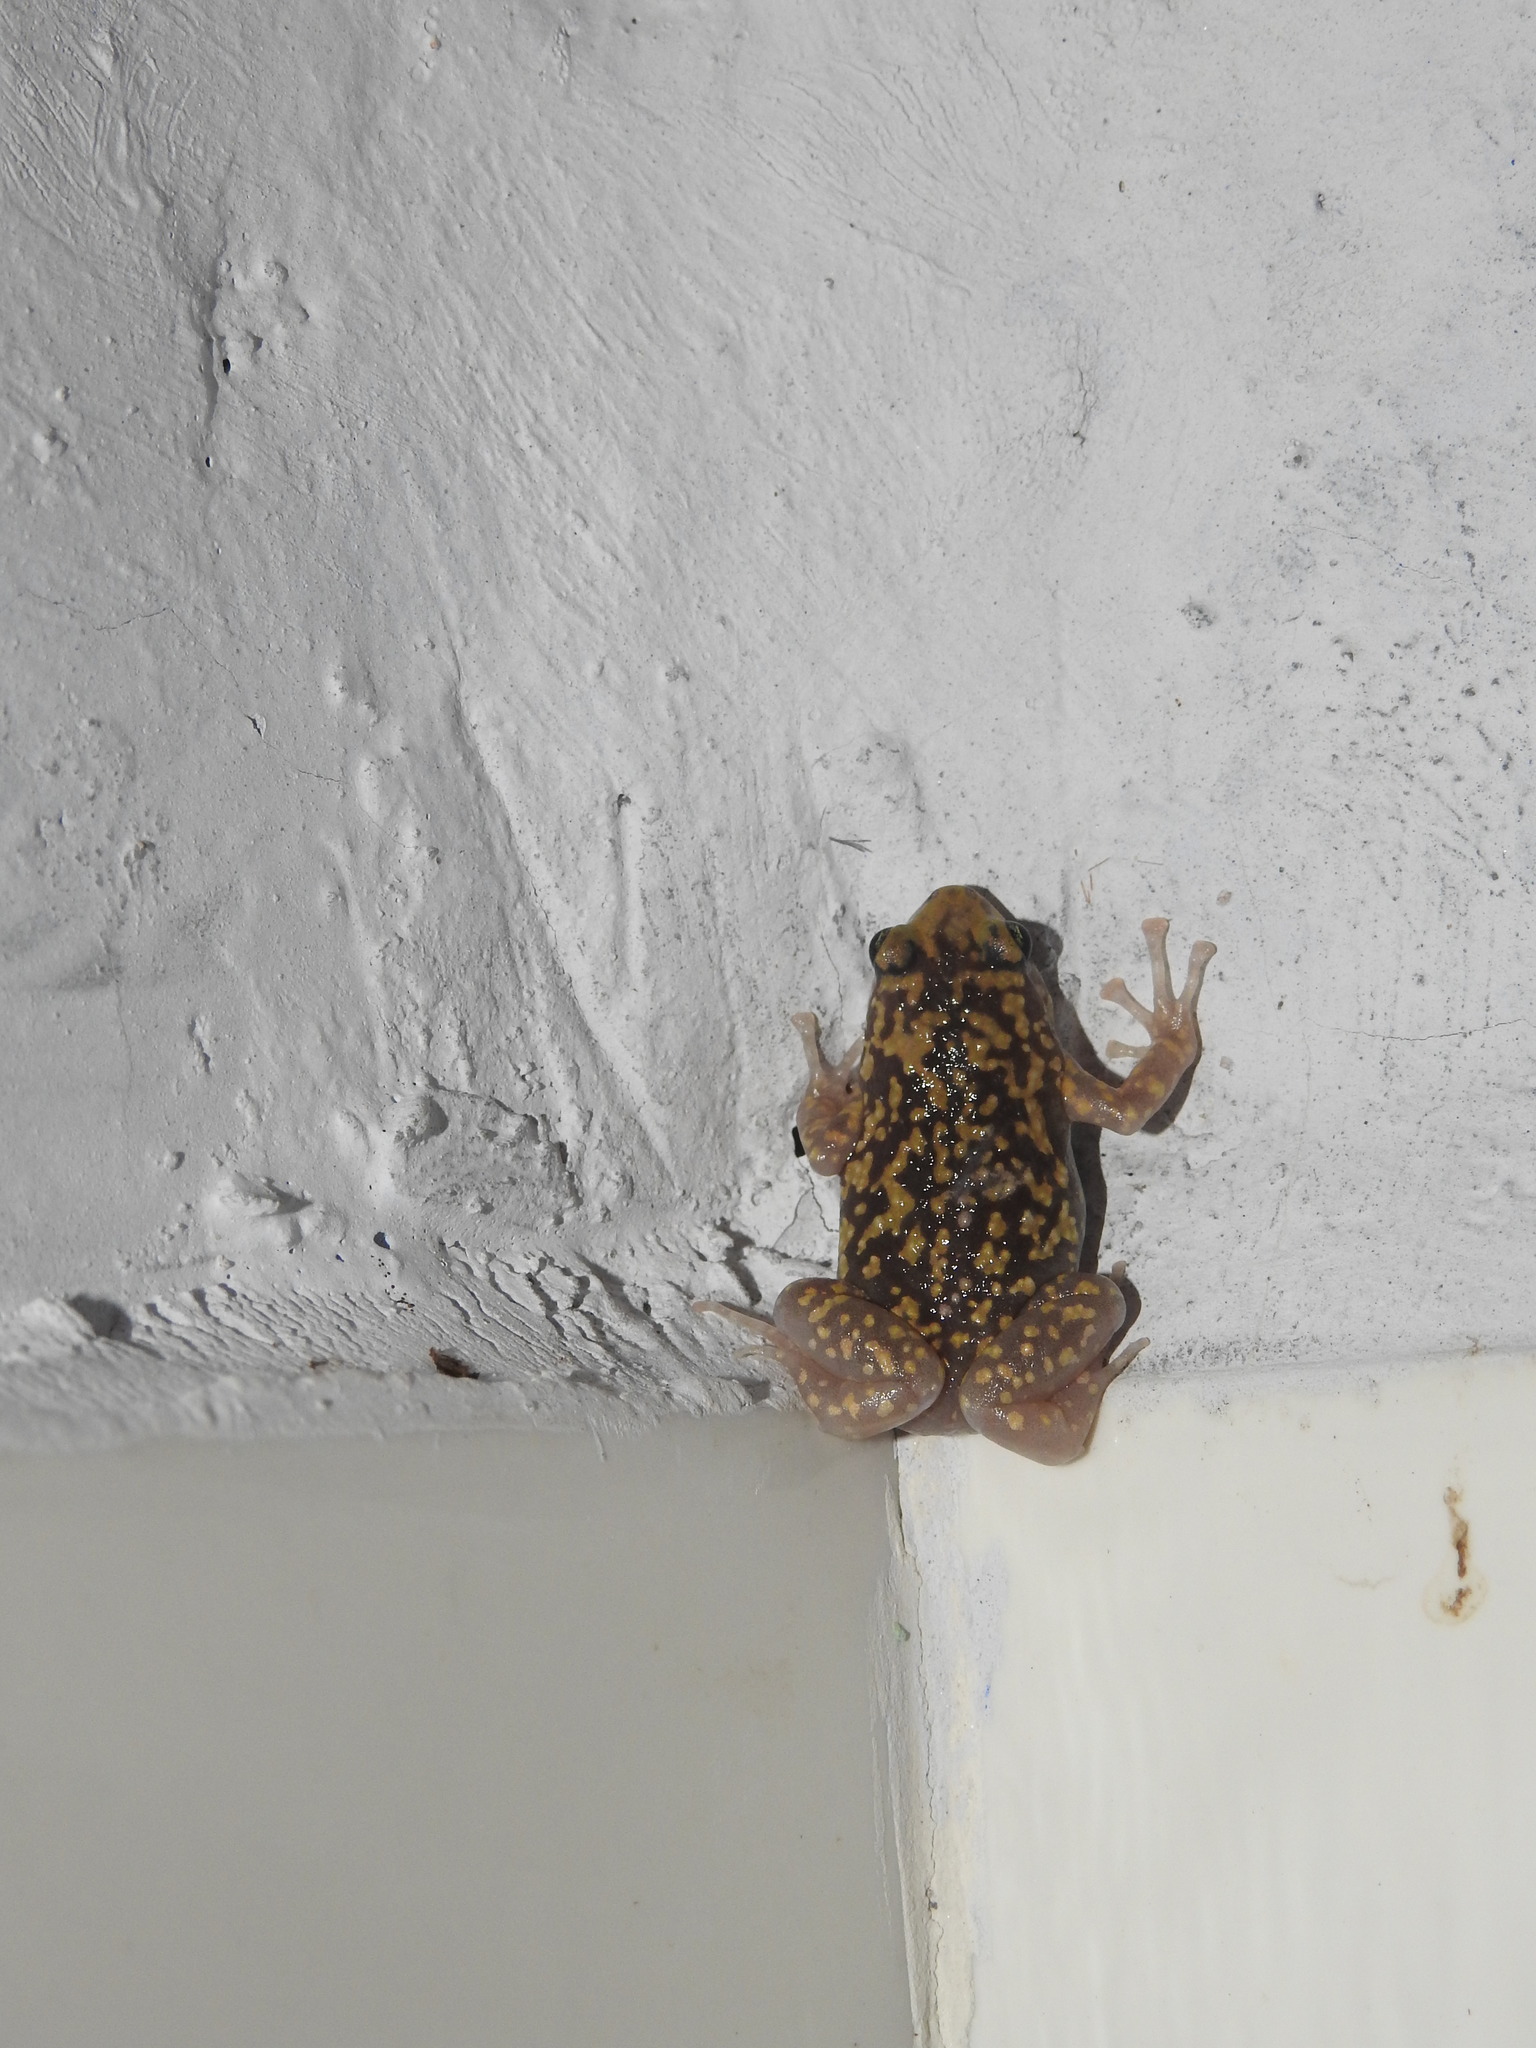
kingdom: Animalia
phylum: Chordata
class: Amphibia
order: Anura
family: Microhylidae
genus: Uperodon
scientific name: Uperodon variegatus
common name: Eluru dot frog
